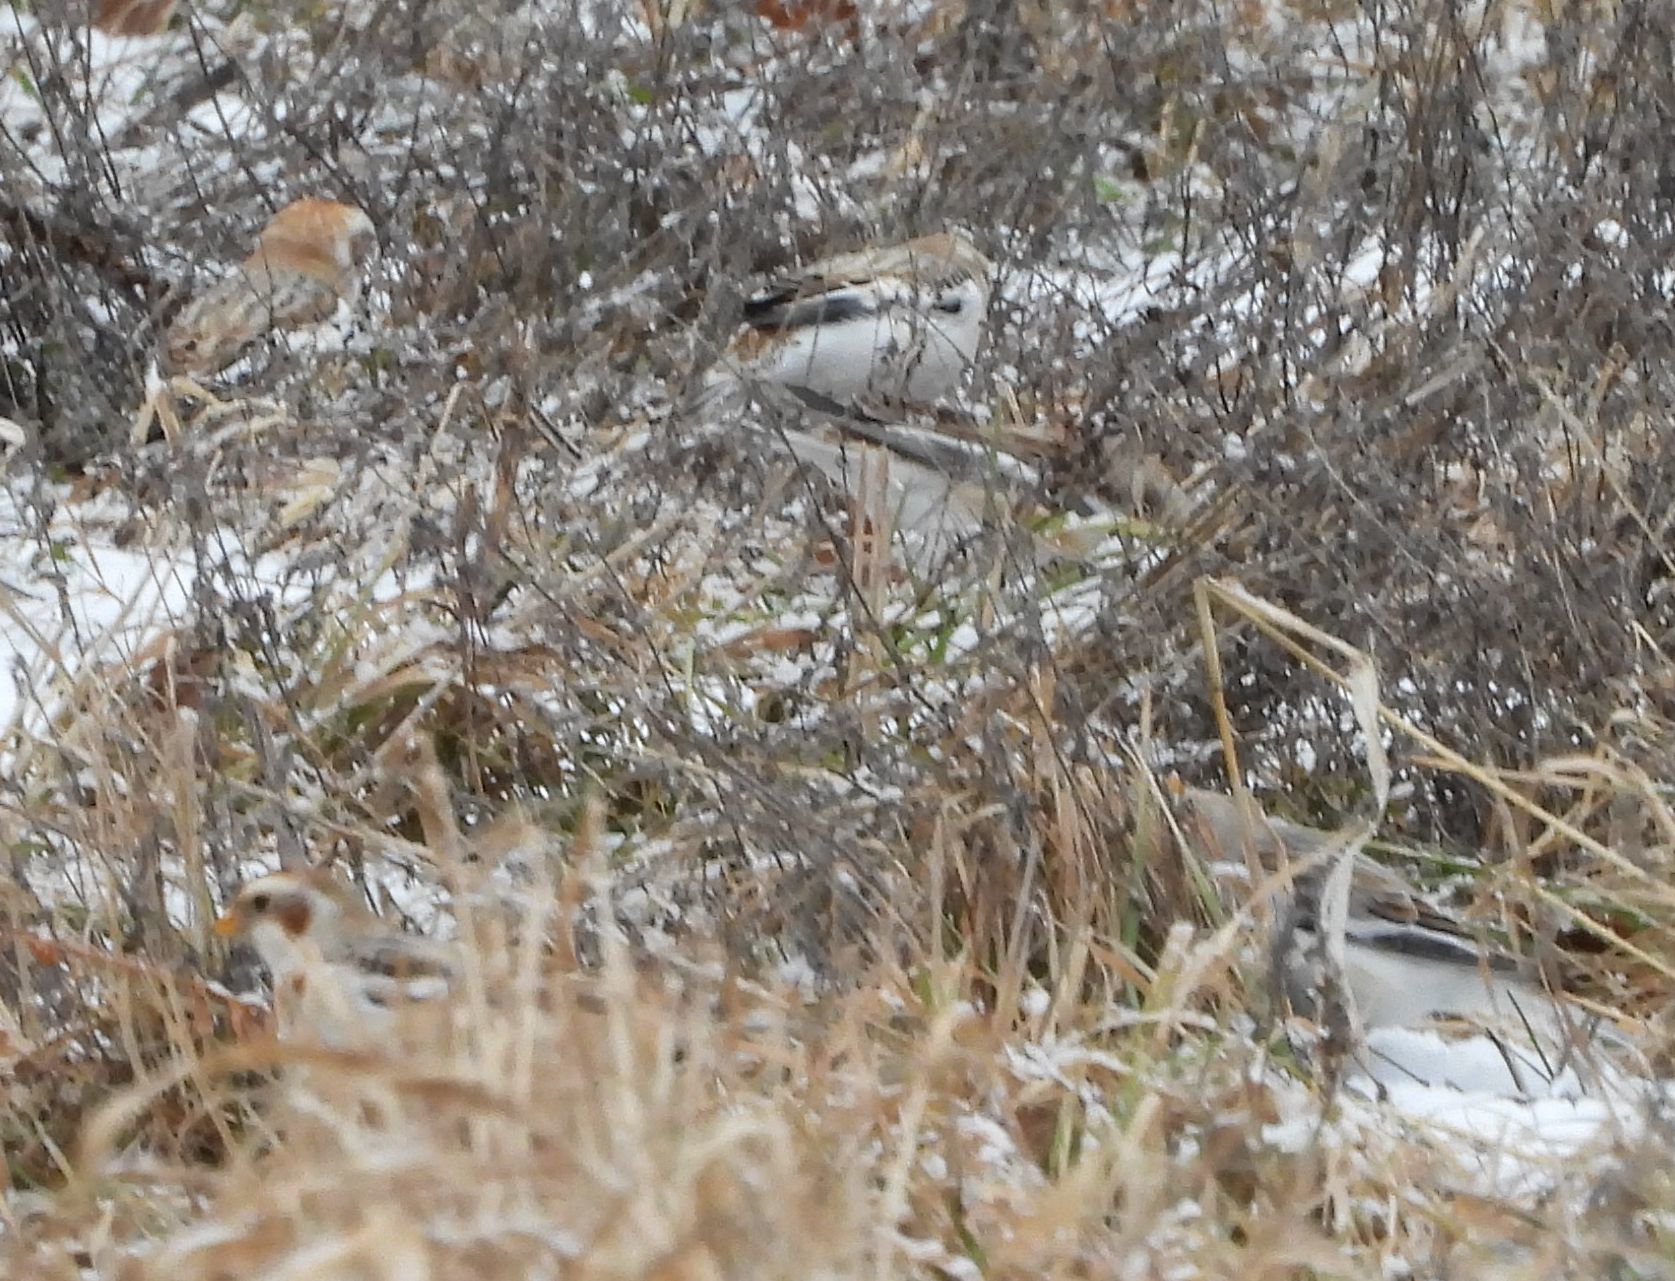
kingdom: Animalia
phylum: Chordata
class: Aves
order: Passeriformes
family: Calcariidae
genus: Plectrophenax
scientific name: Plectrophenax nivalis
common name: Snow bunting
